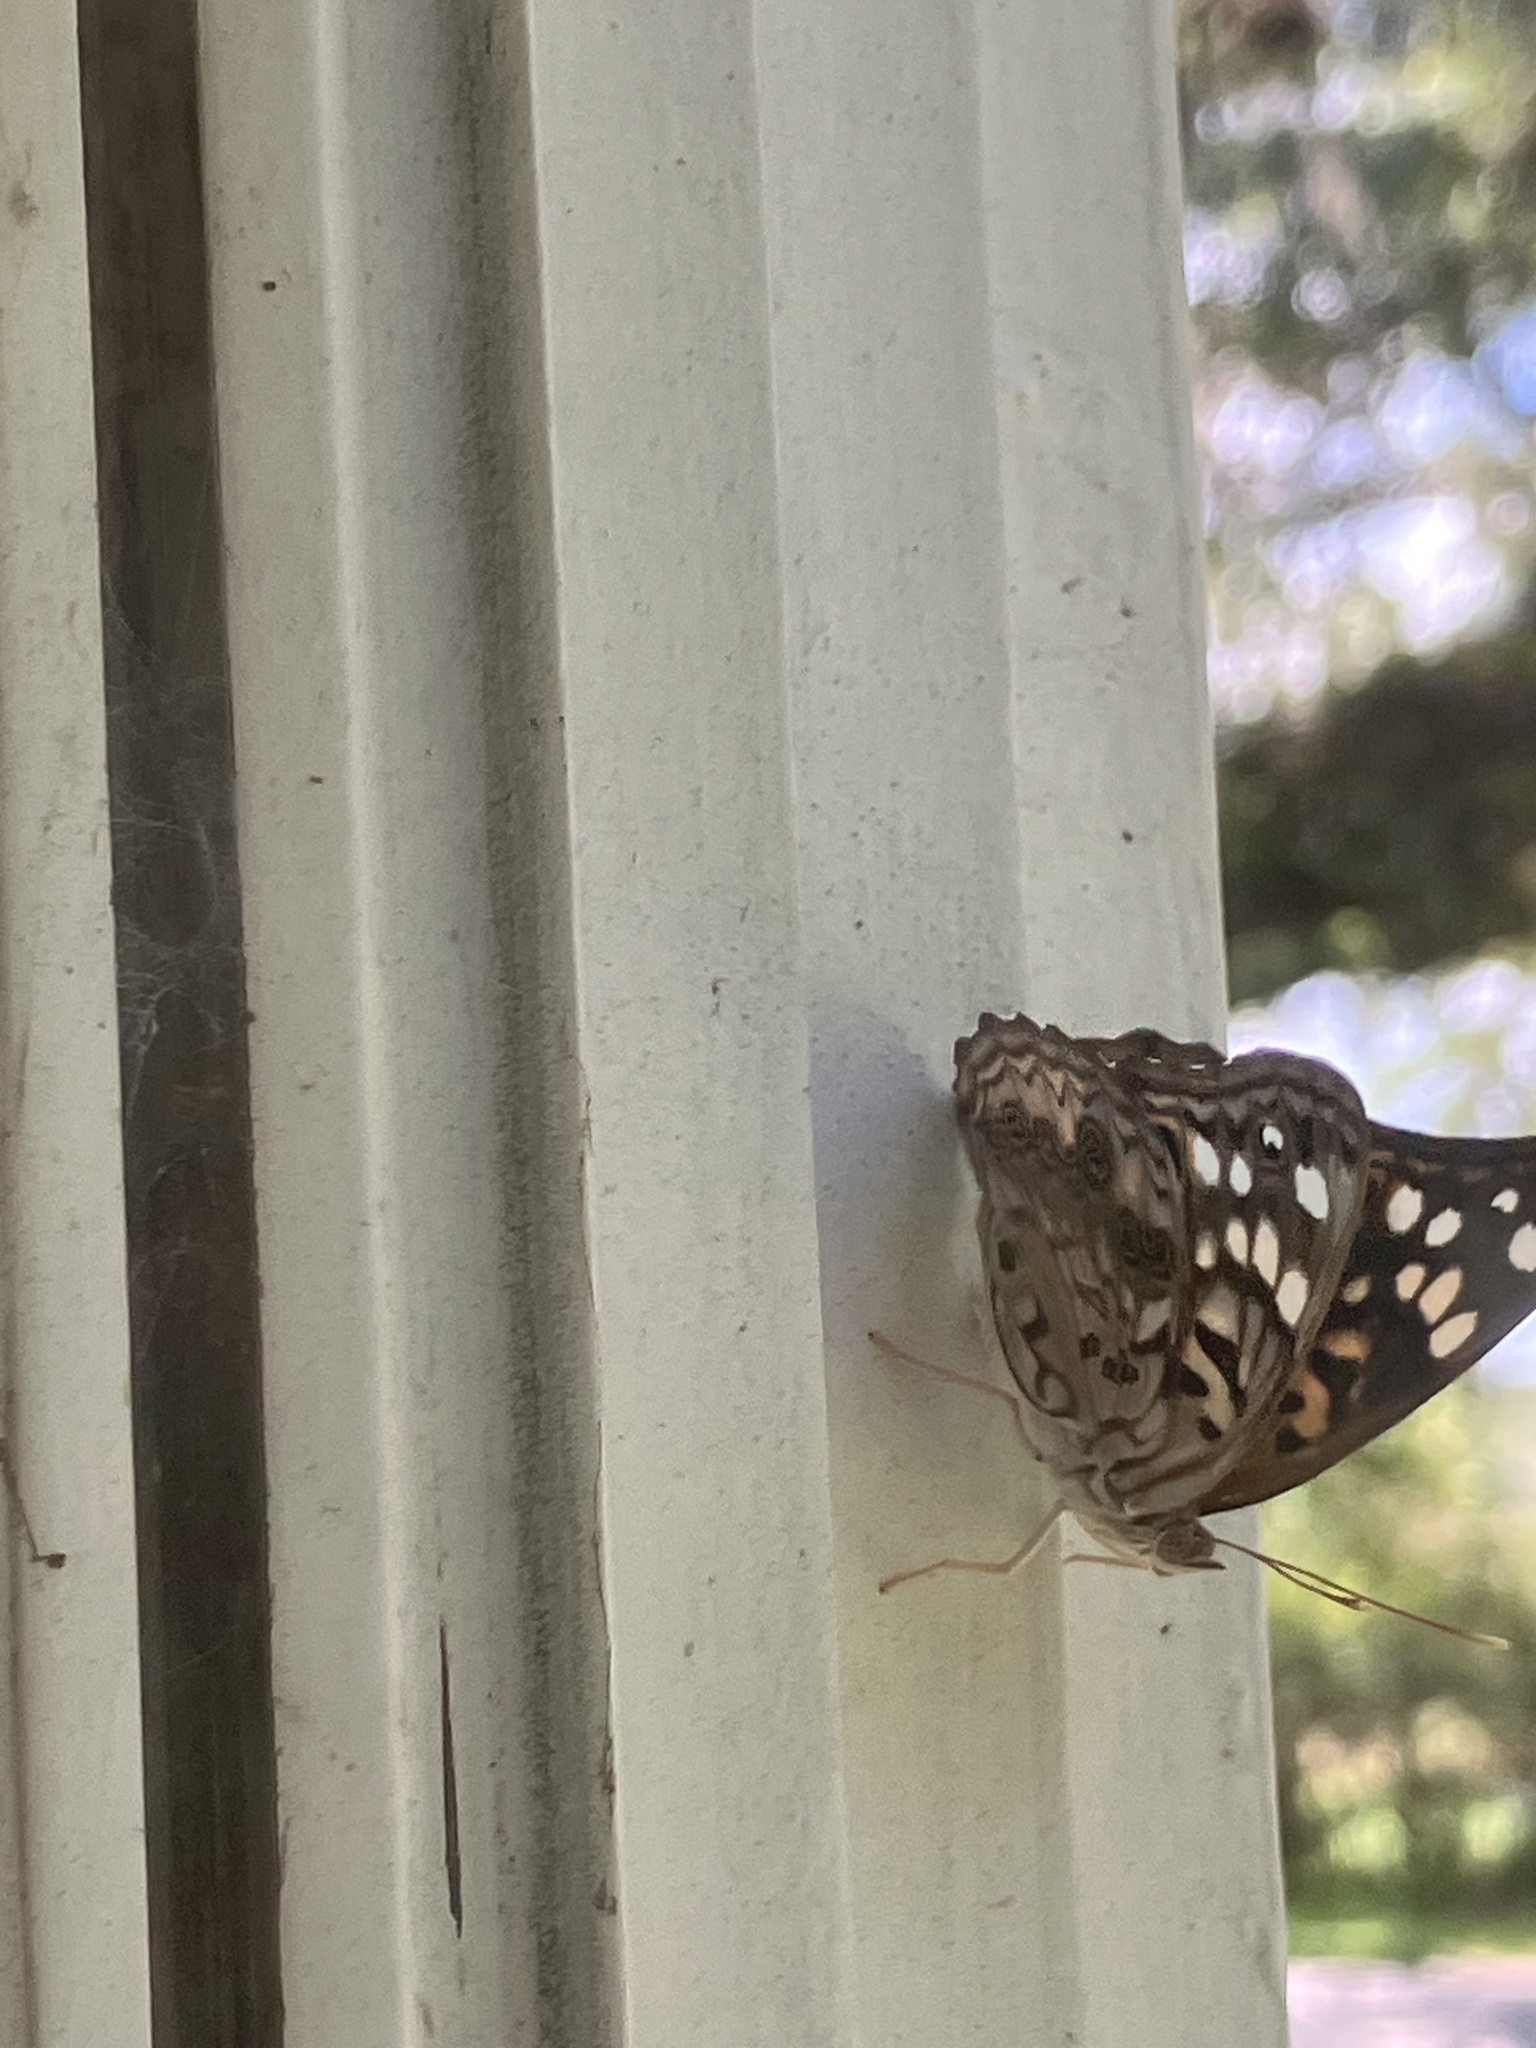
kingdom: Animalia
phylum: Arthropoda
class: Insecta
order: Lepidoptera
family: Nymphalidae
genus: Asterocampa
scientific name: Asterocampa celtis
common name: Hackberry emperor
